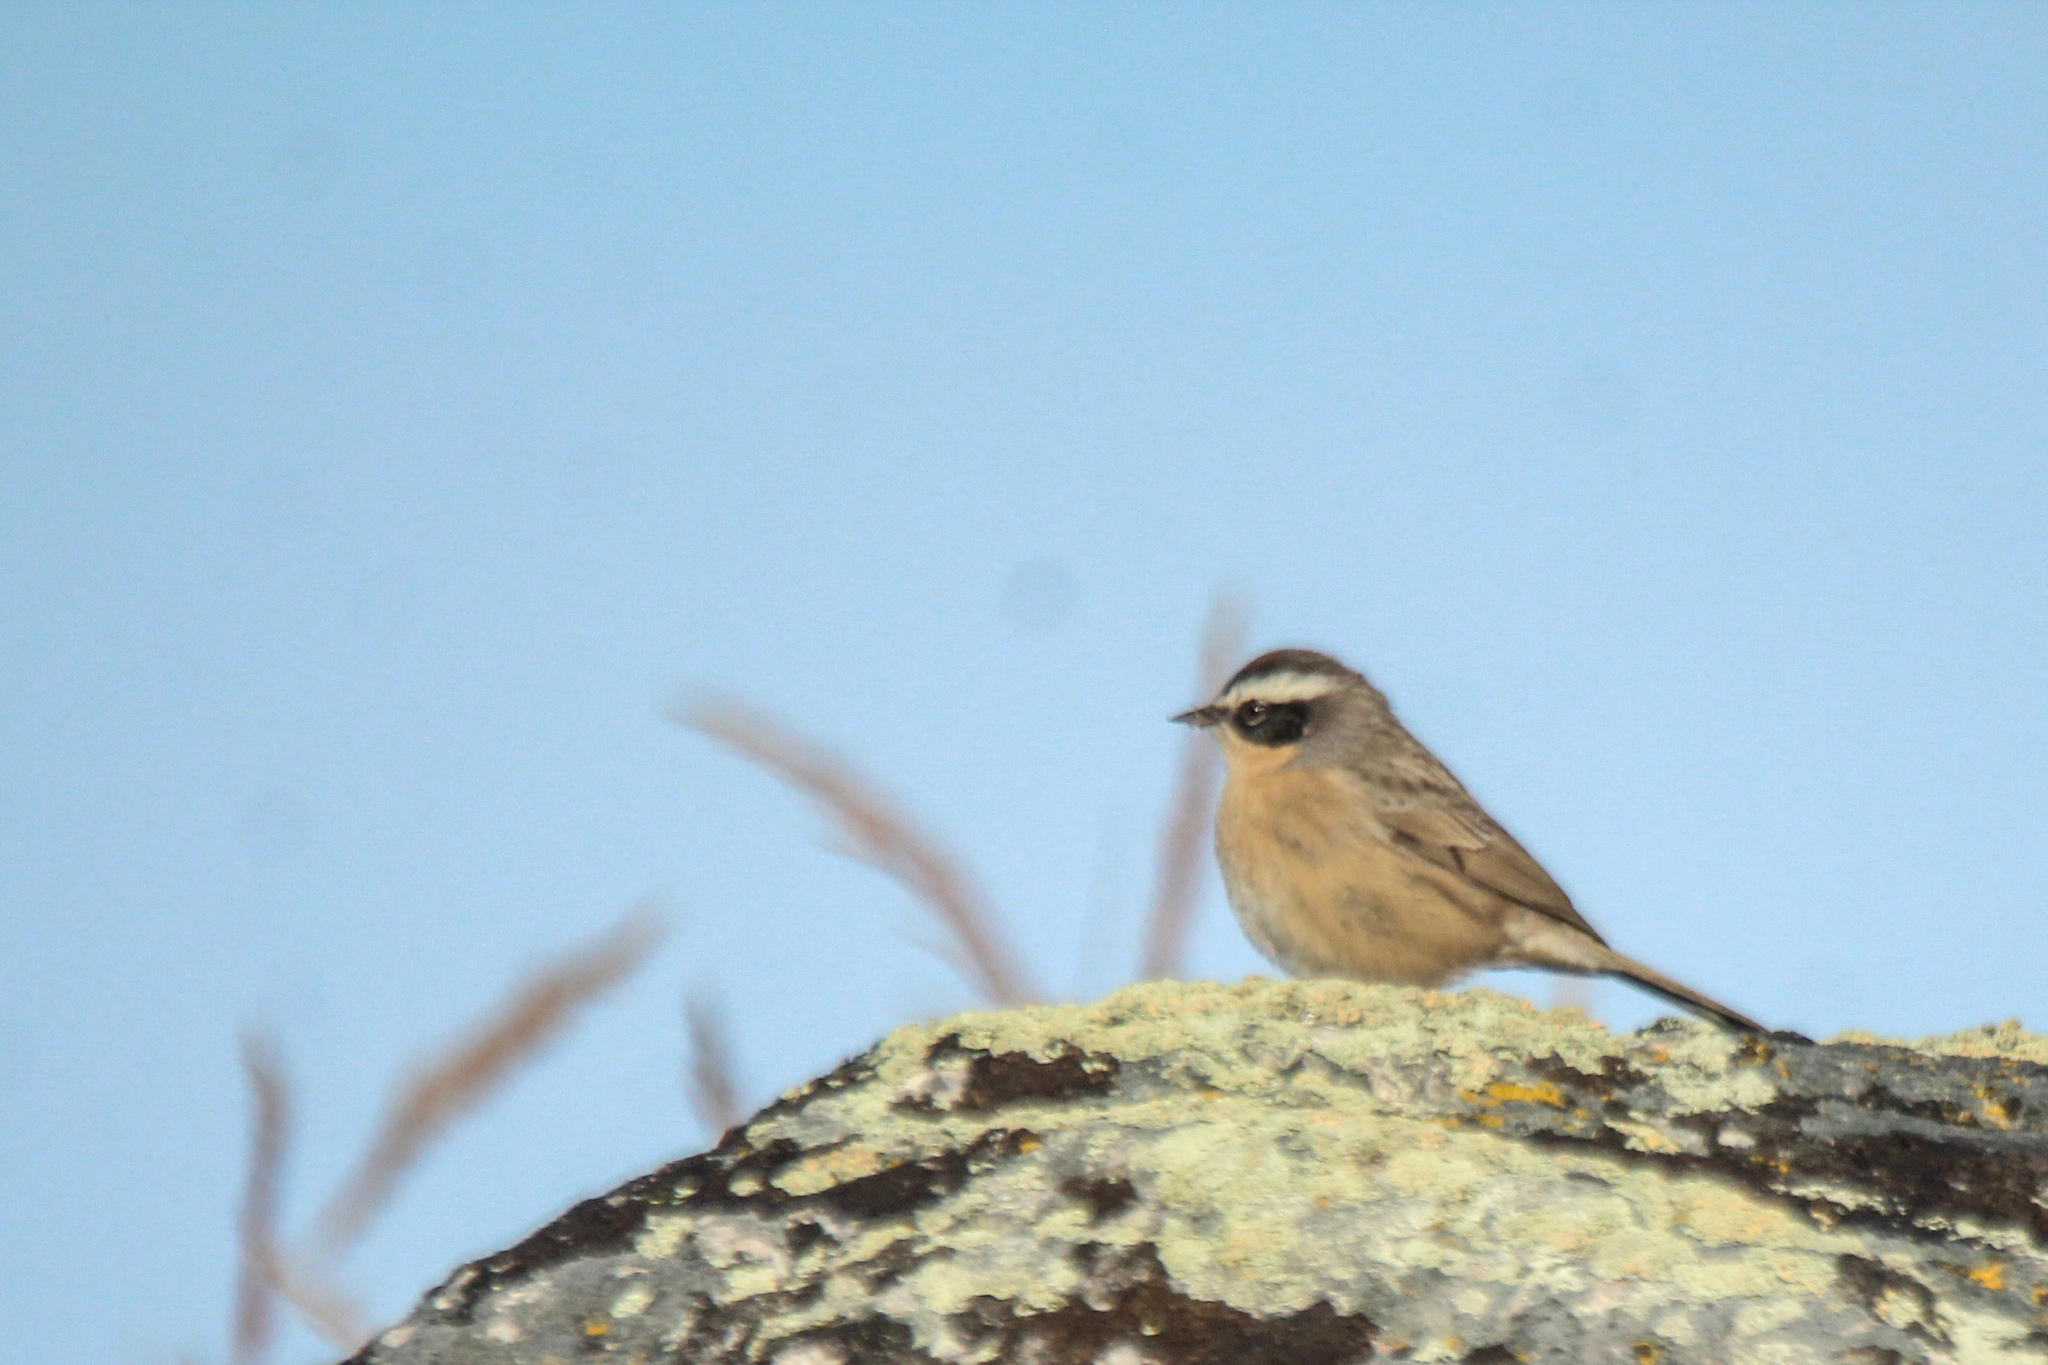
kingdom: Animalia
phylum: Chordata
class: Aves
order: Passeriformes
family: Prunellidae
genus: Prunella
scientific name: Prunella fulvescens
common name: Brown accentor
